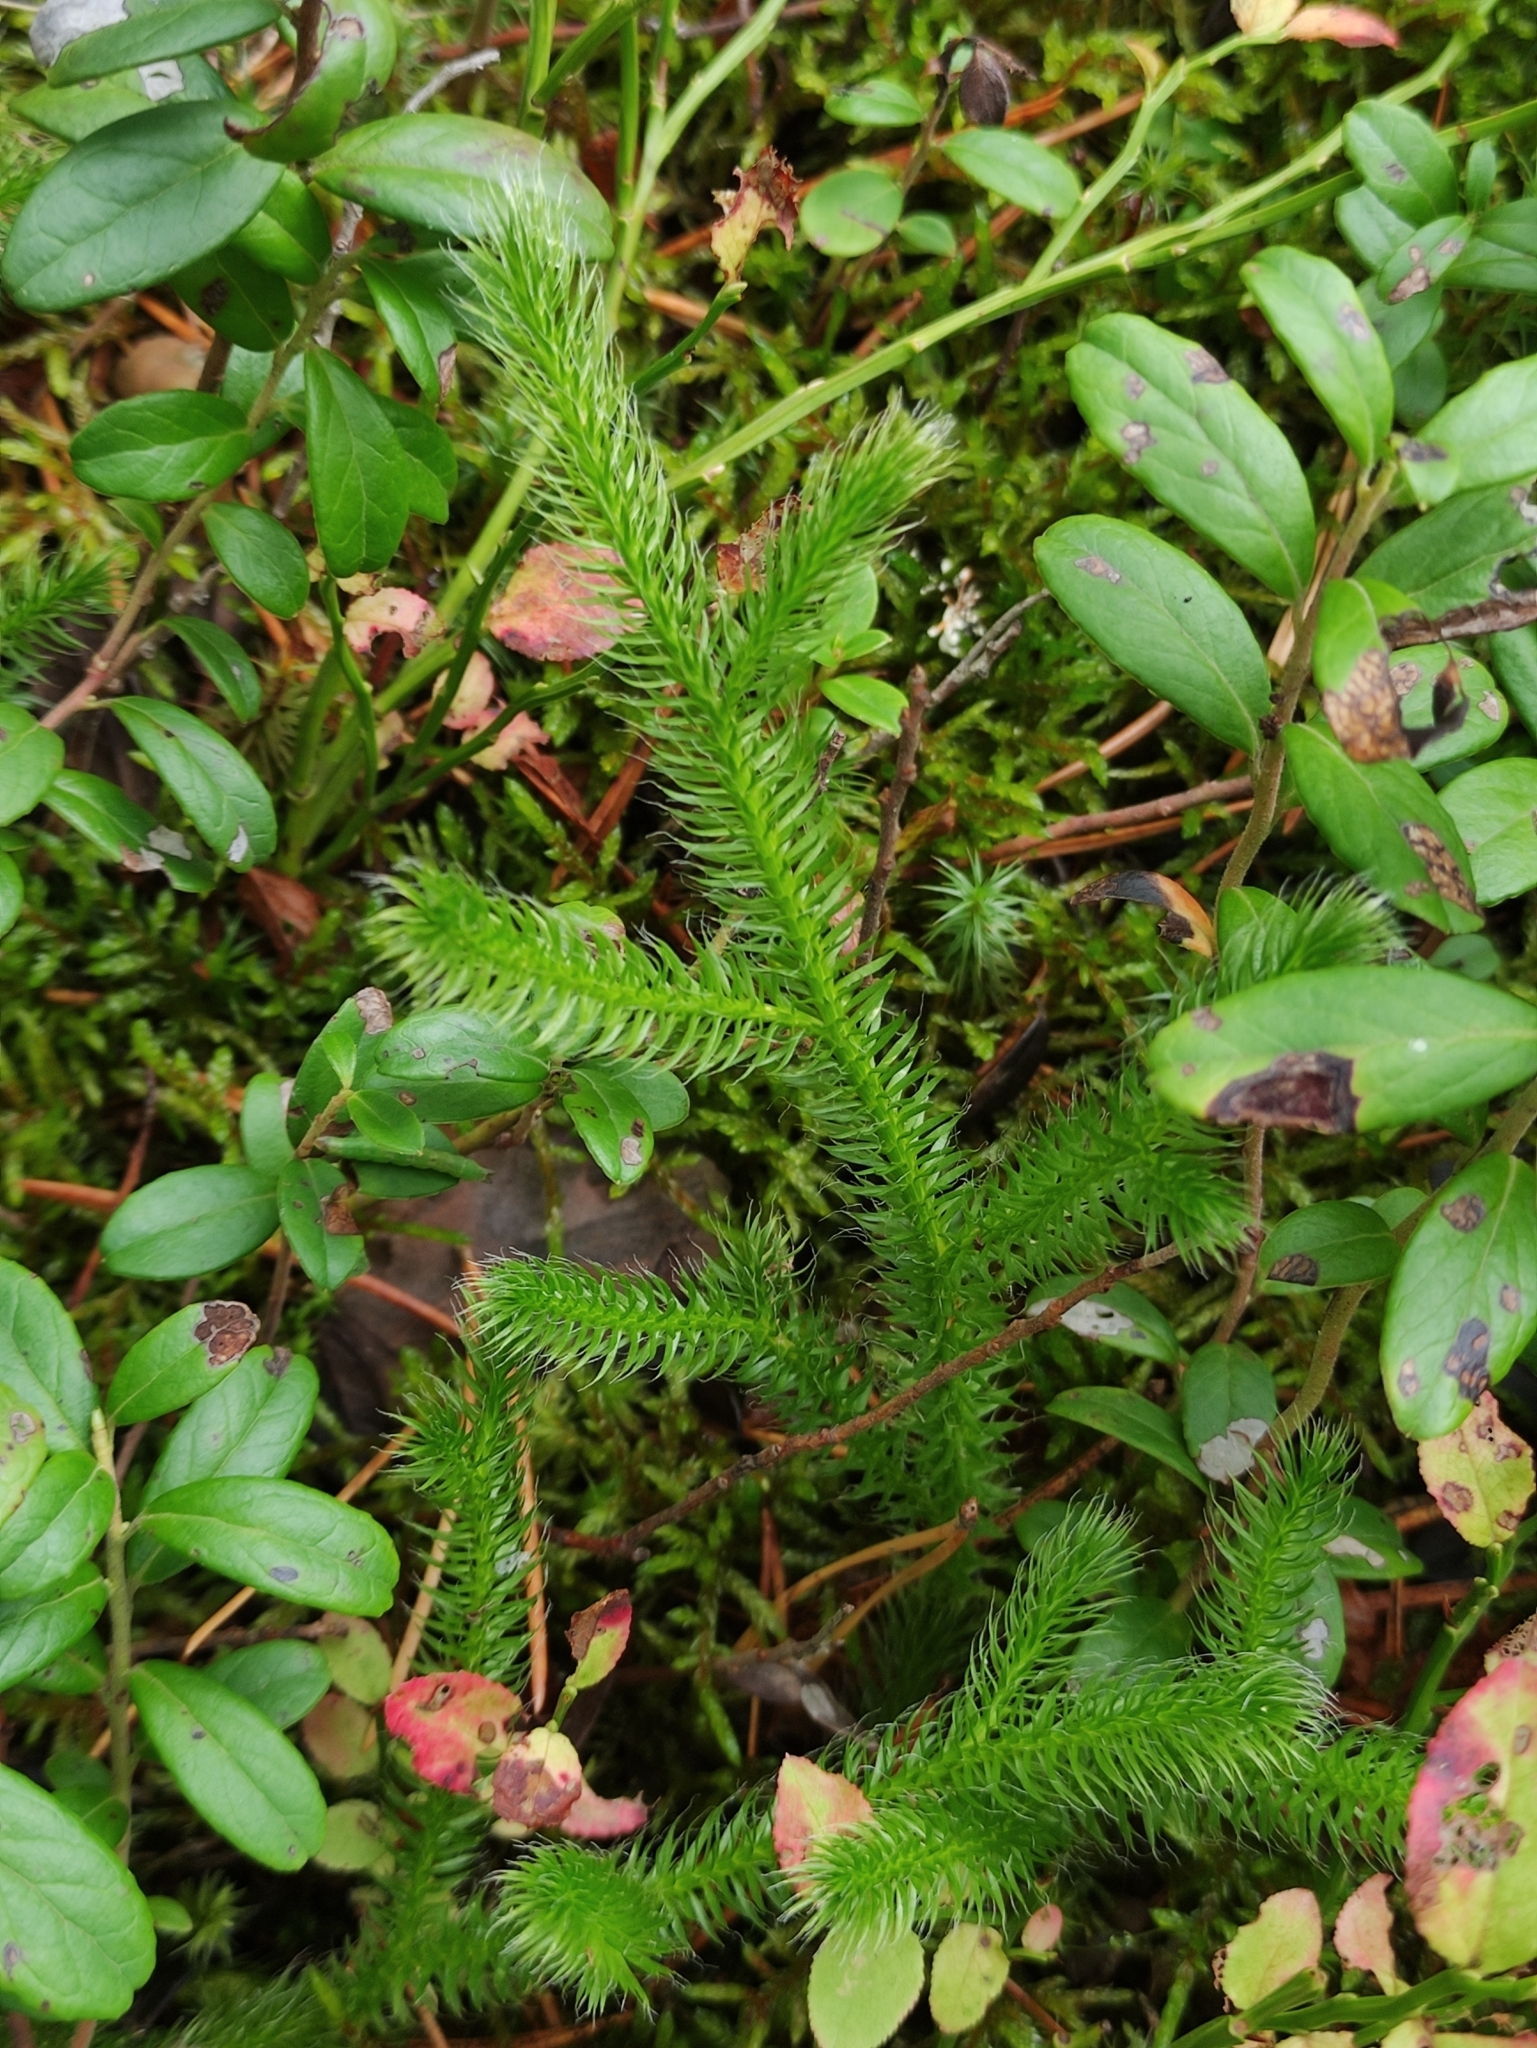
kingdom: Plantae
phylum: Tracheophyta
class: Lycopodiopsida
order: Lycopodiales
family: Lycopodiaceae
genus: Lycopodium
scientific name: Lycopodium clavatum
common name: Stag's-horn clubmoss
